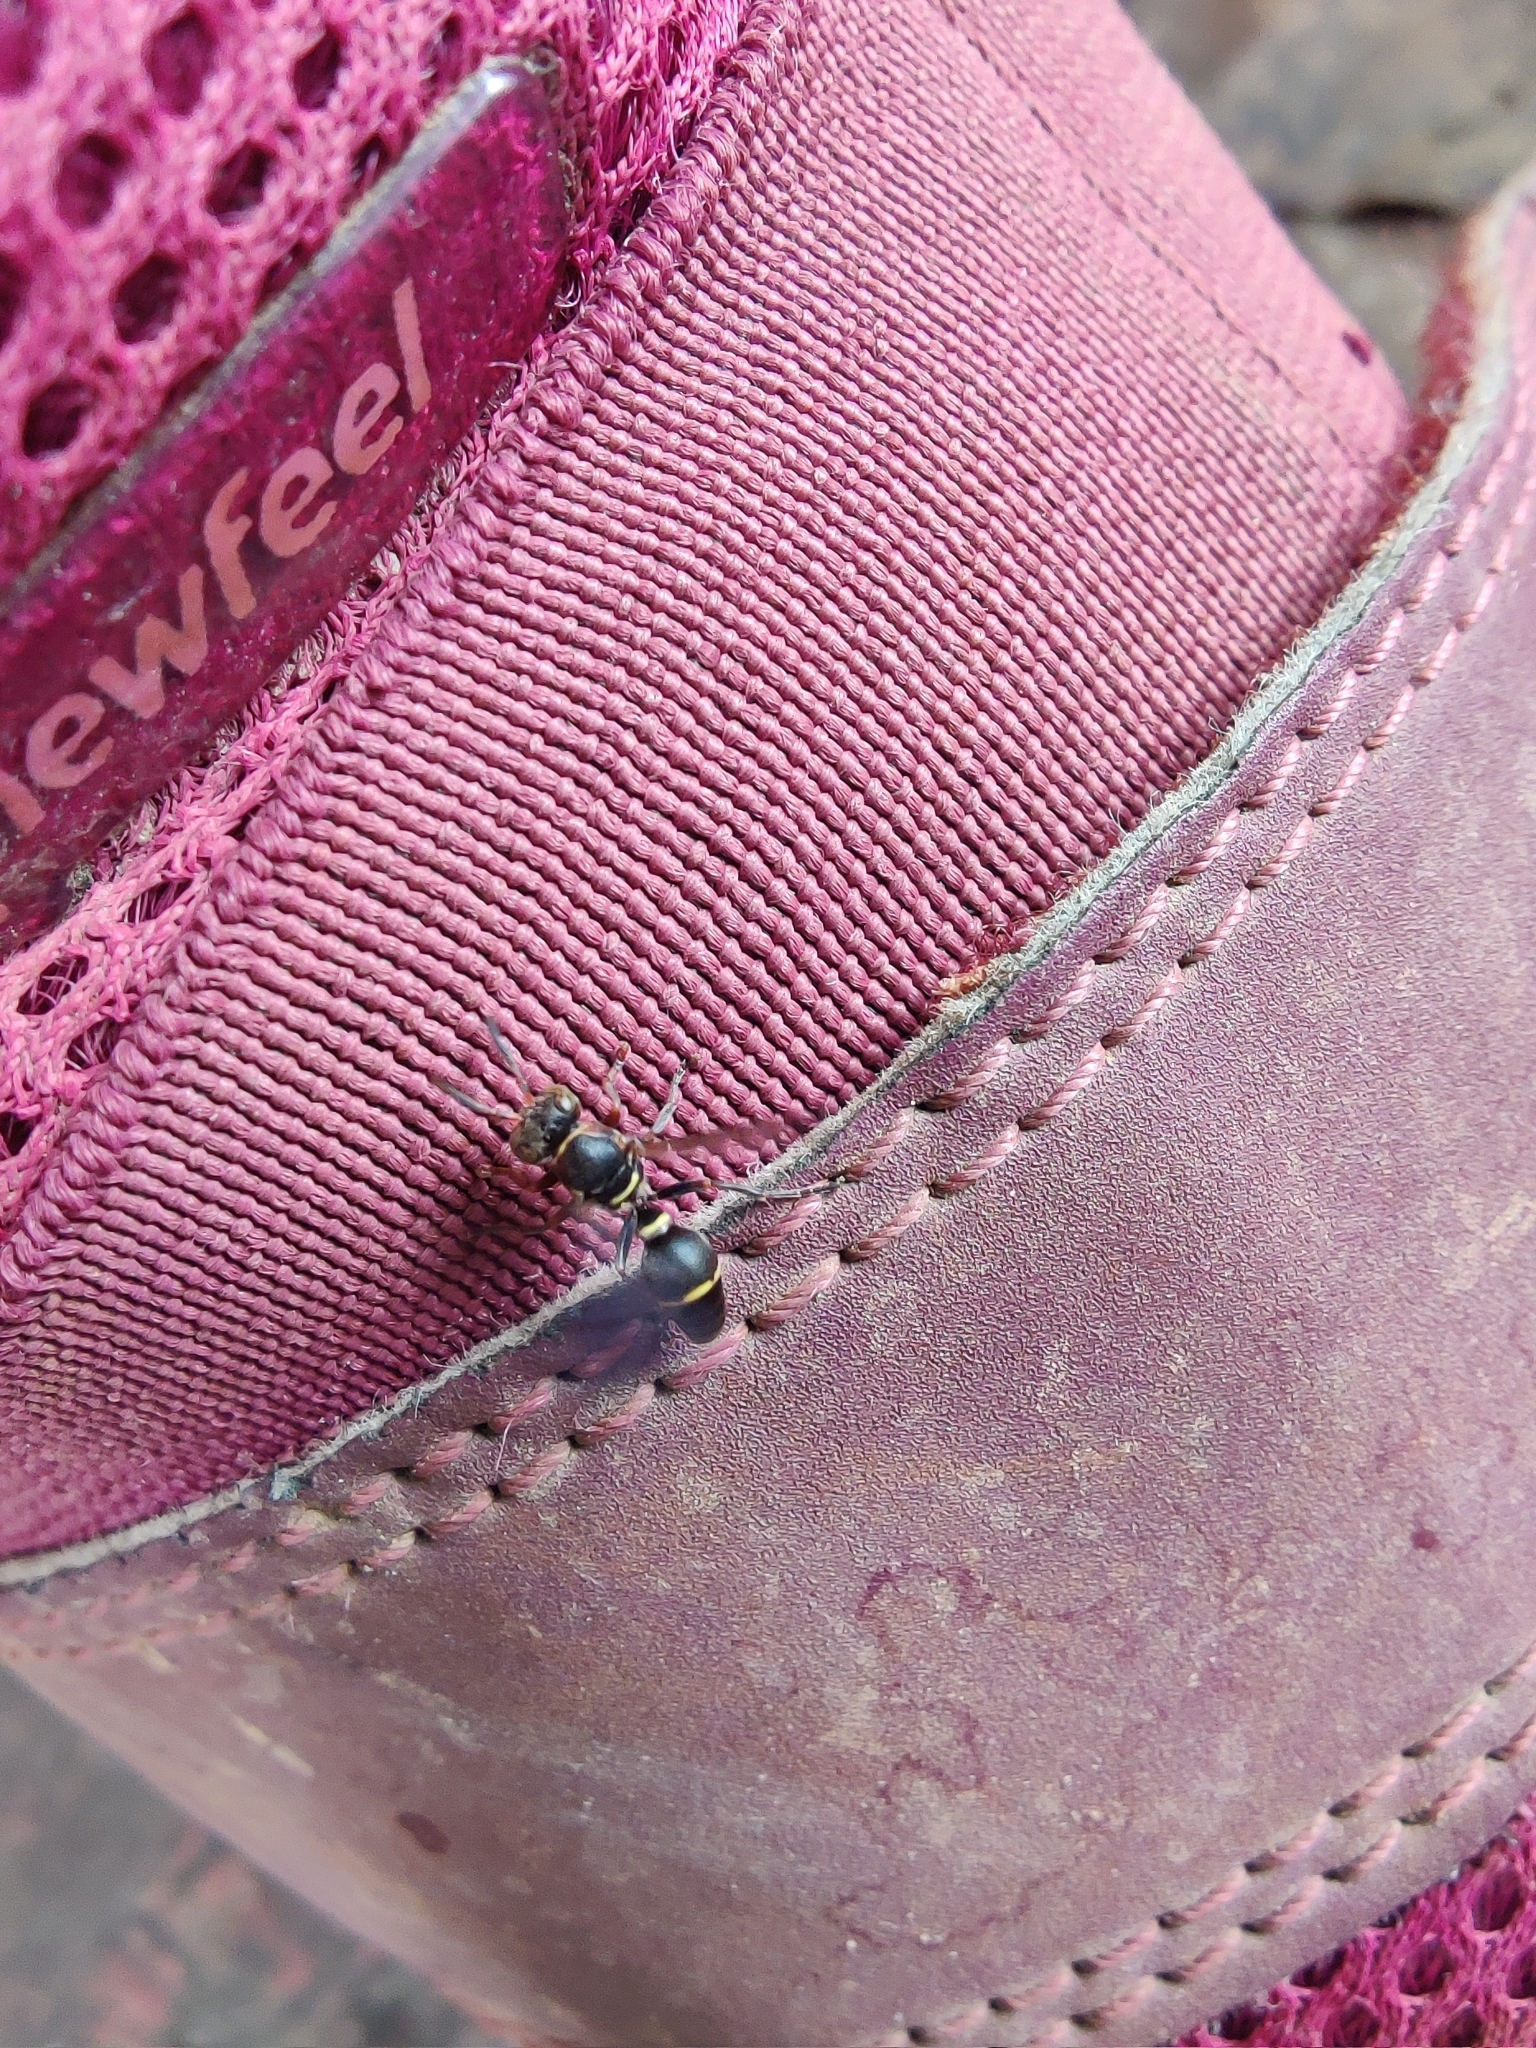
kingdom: Animalia
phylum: Arthropoda
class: Insecta
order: Hymenoptera
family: Vespidae
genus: Ropalidia
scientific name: Ropalidia rufoplagiata
